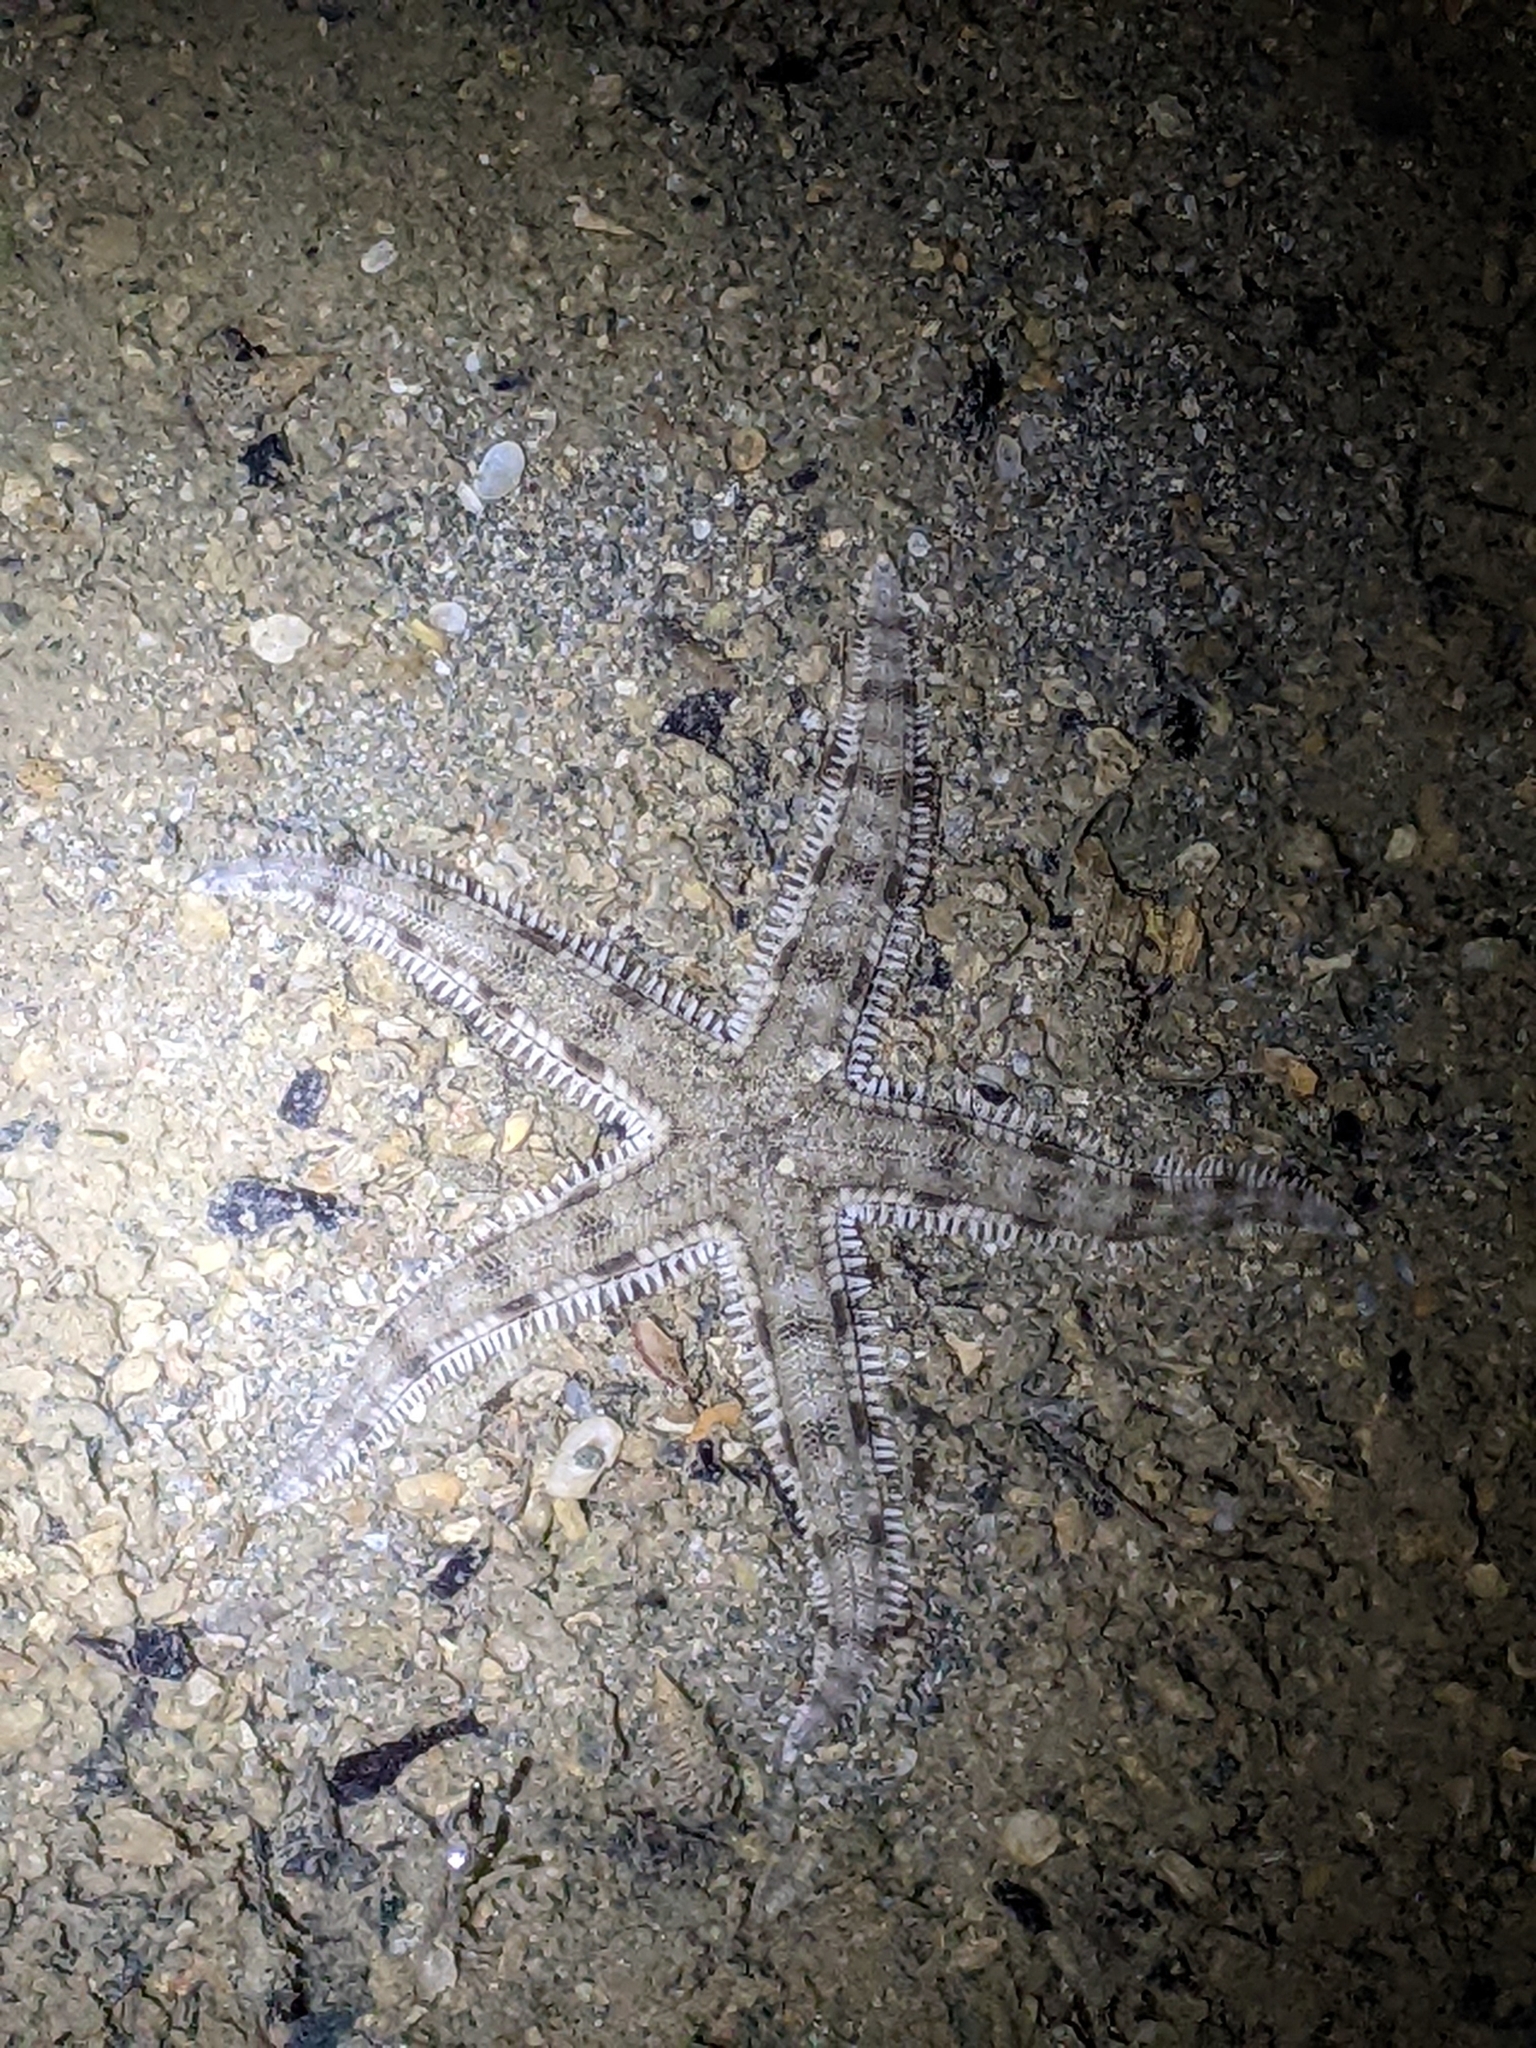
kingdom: Animalia
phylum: Echinodermata
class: Asteroidea
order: Valvatida
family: Archasteridae
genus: Archaster
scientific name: Archaster typicus
